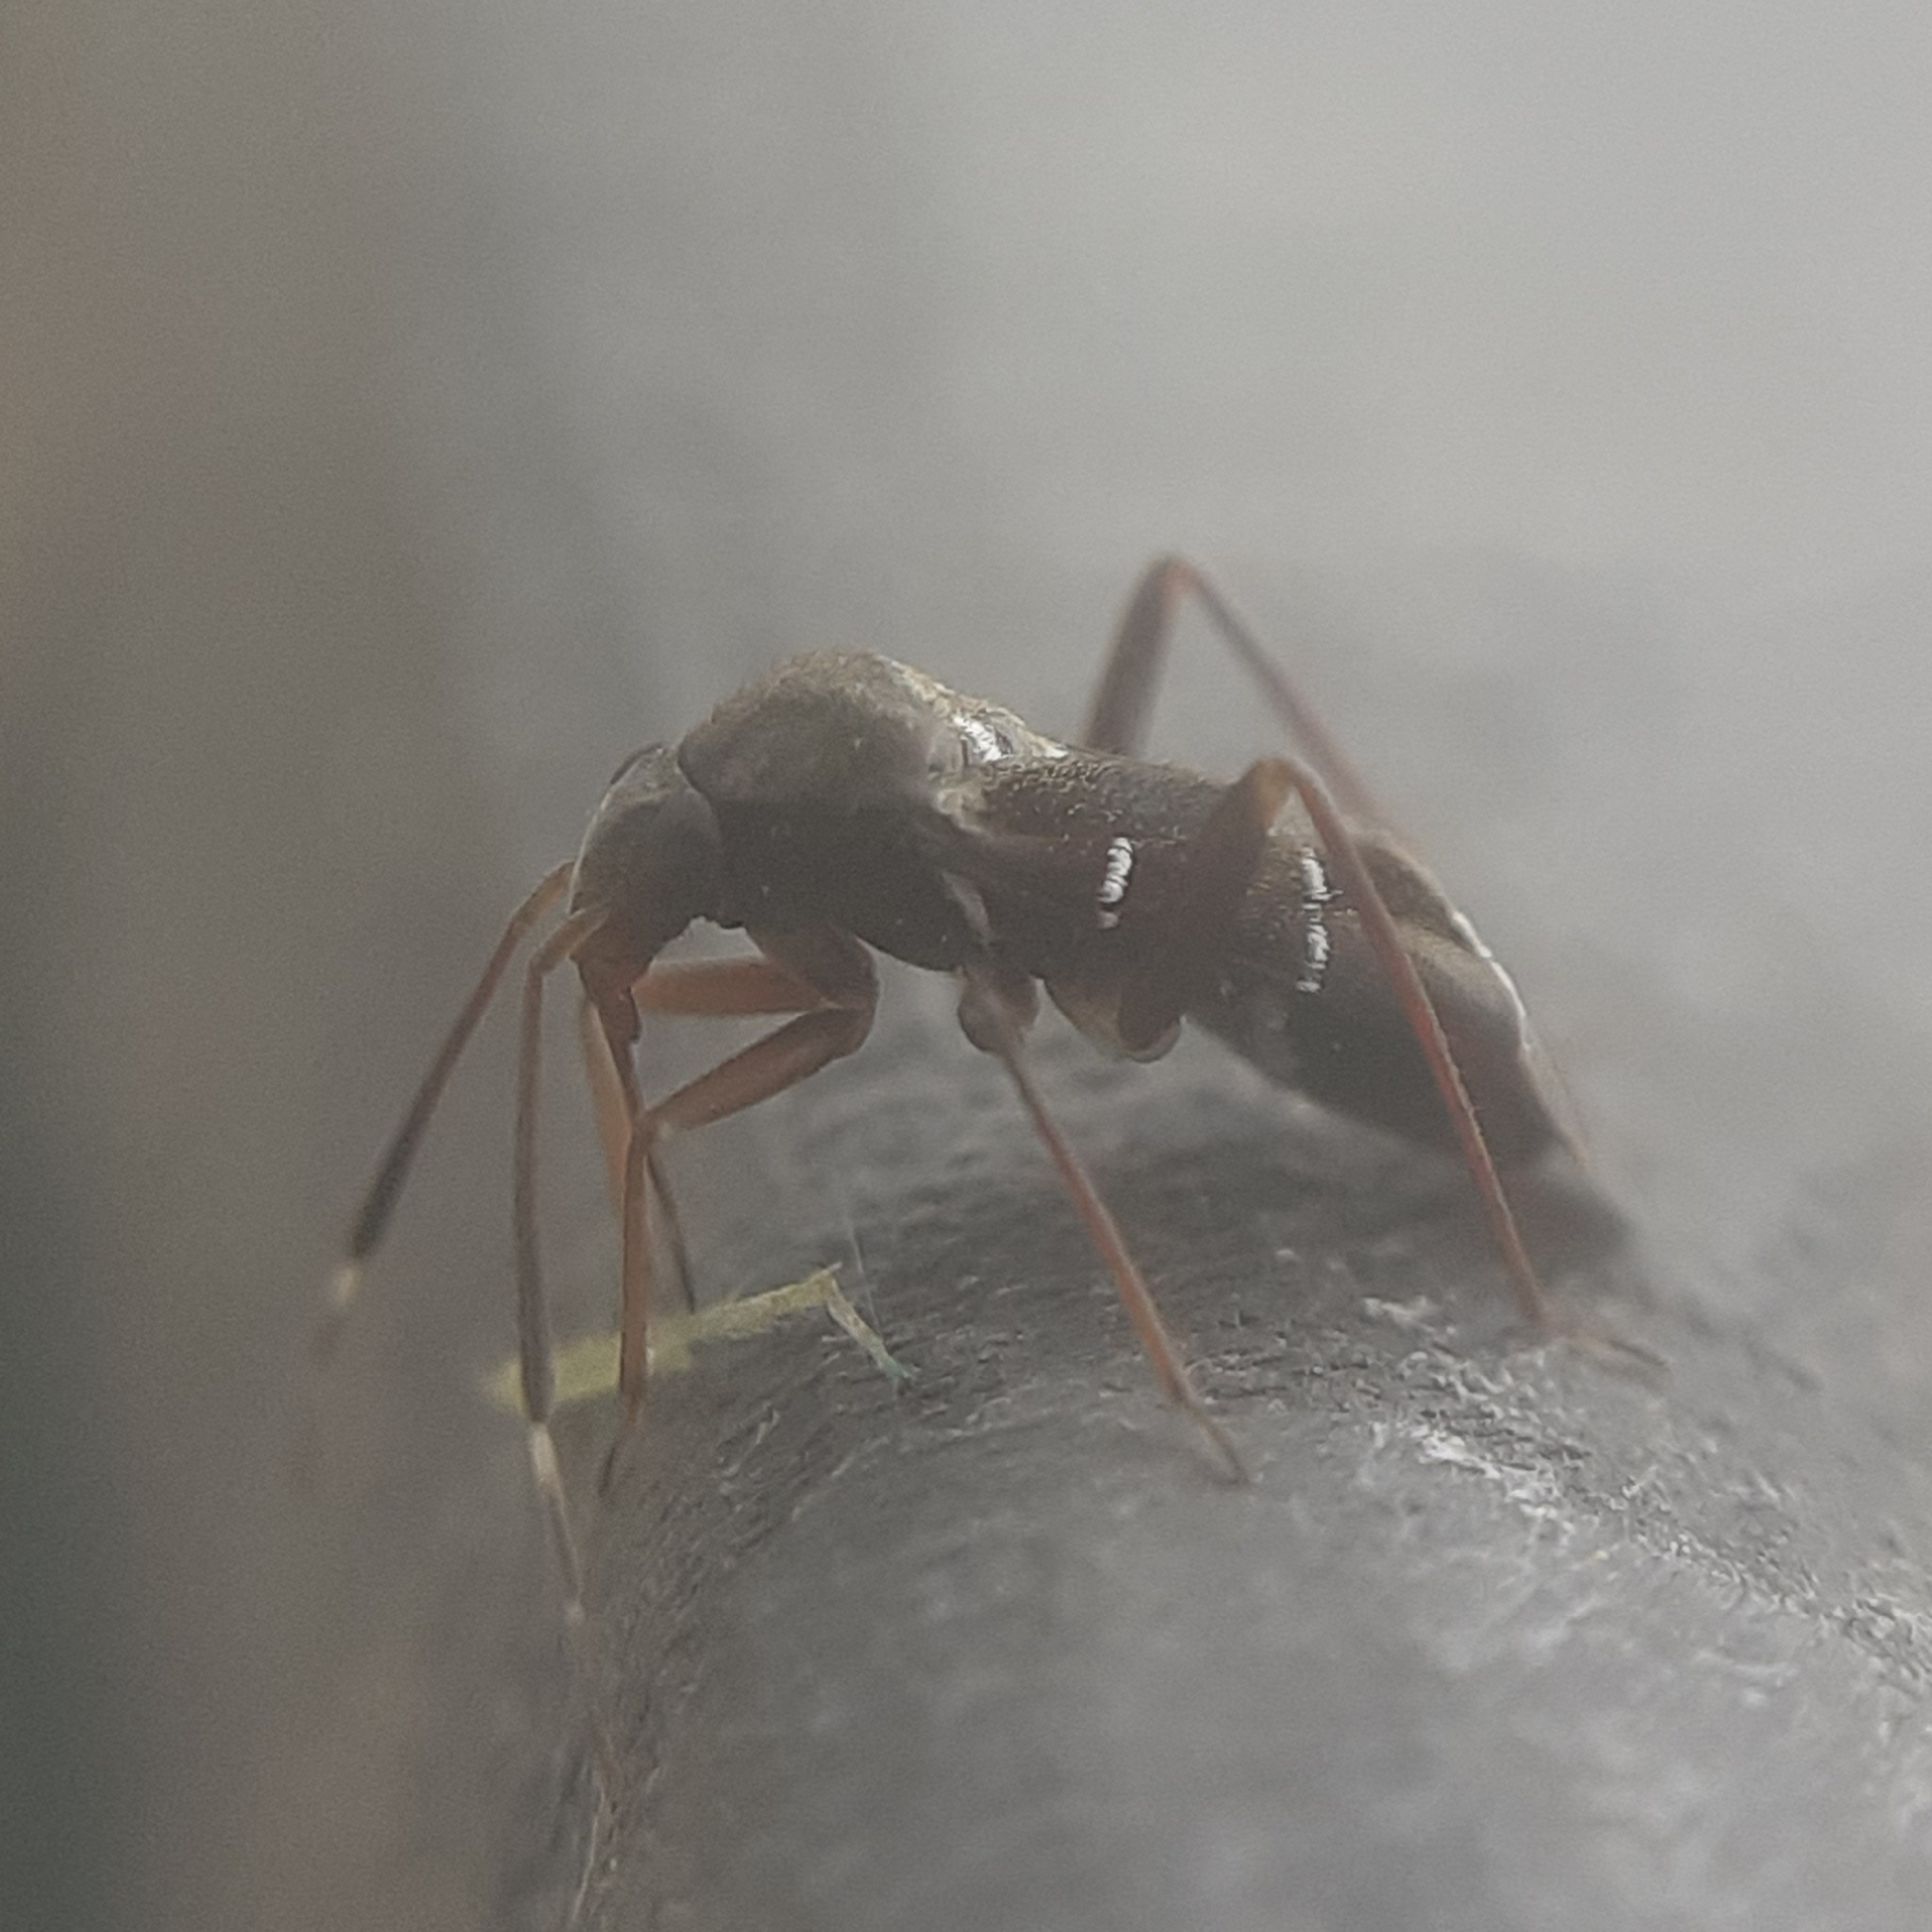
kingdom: Animalia
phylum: Arthropoda
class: Insecta
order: Hemiptera
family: Miridae
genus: Pilophorus
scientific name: Pilophorus clavatus
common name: Plant bug
